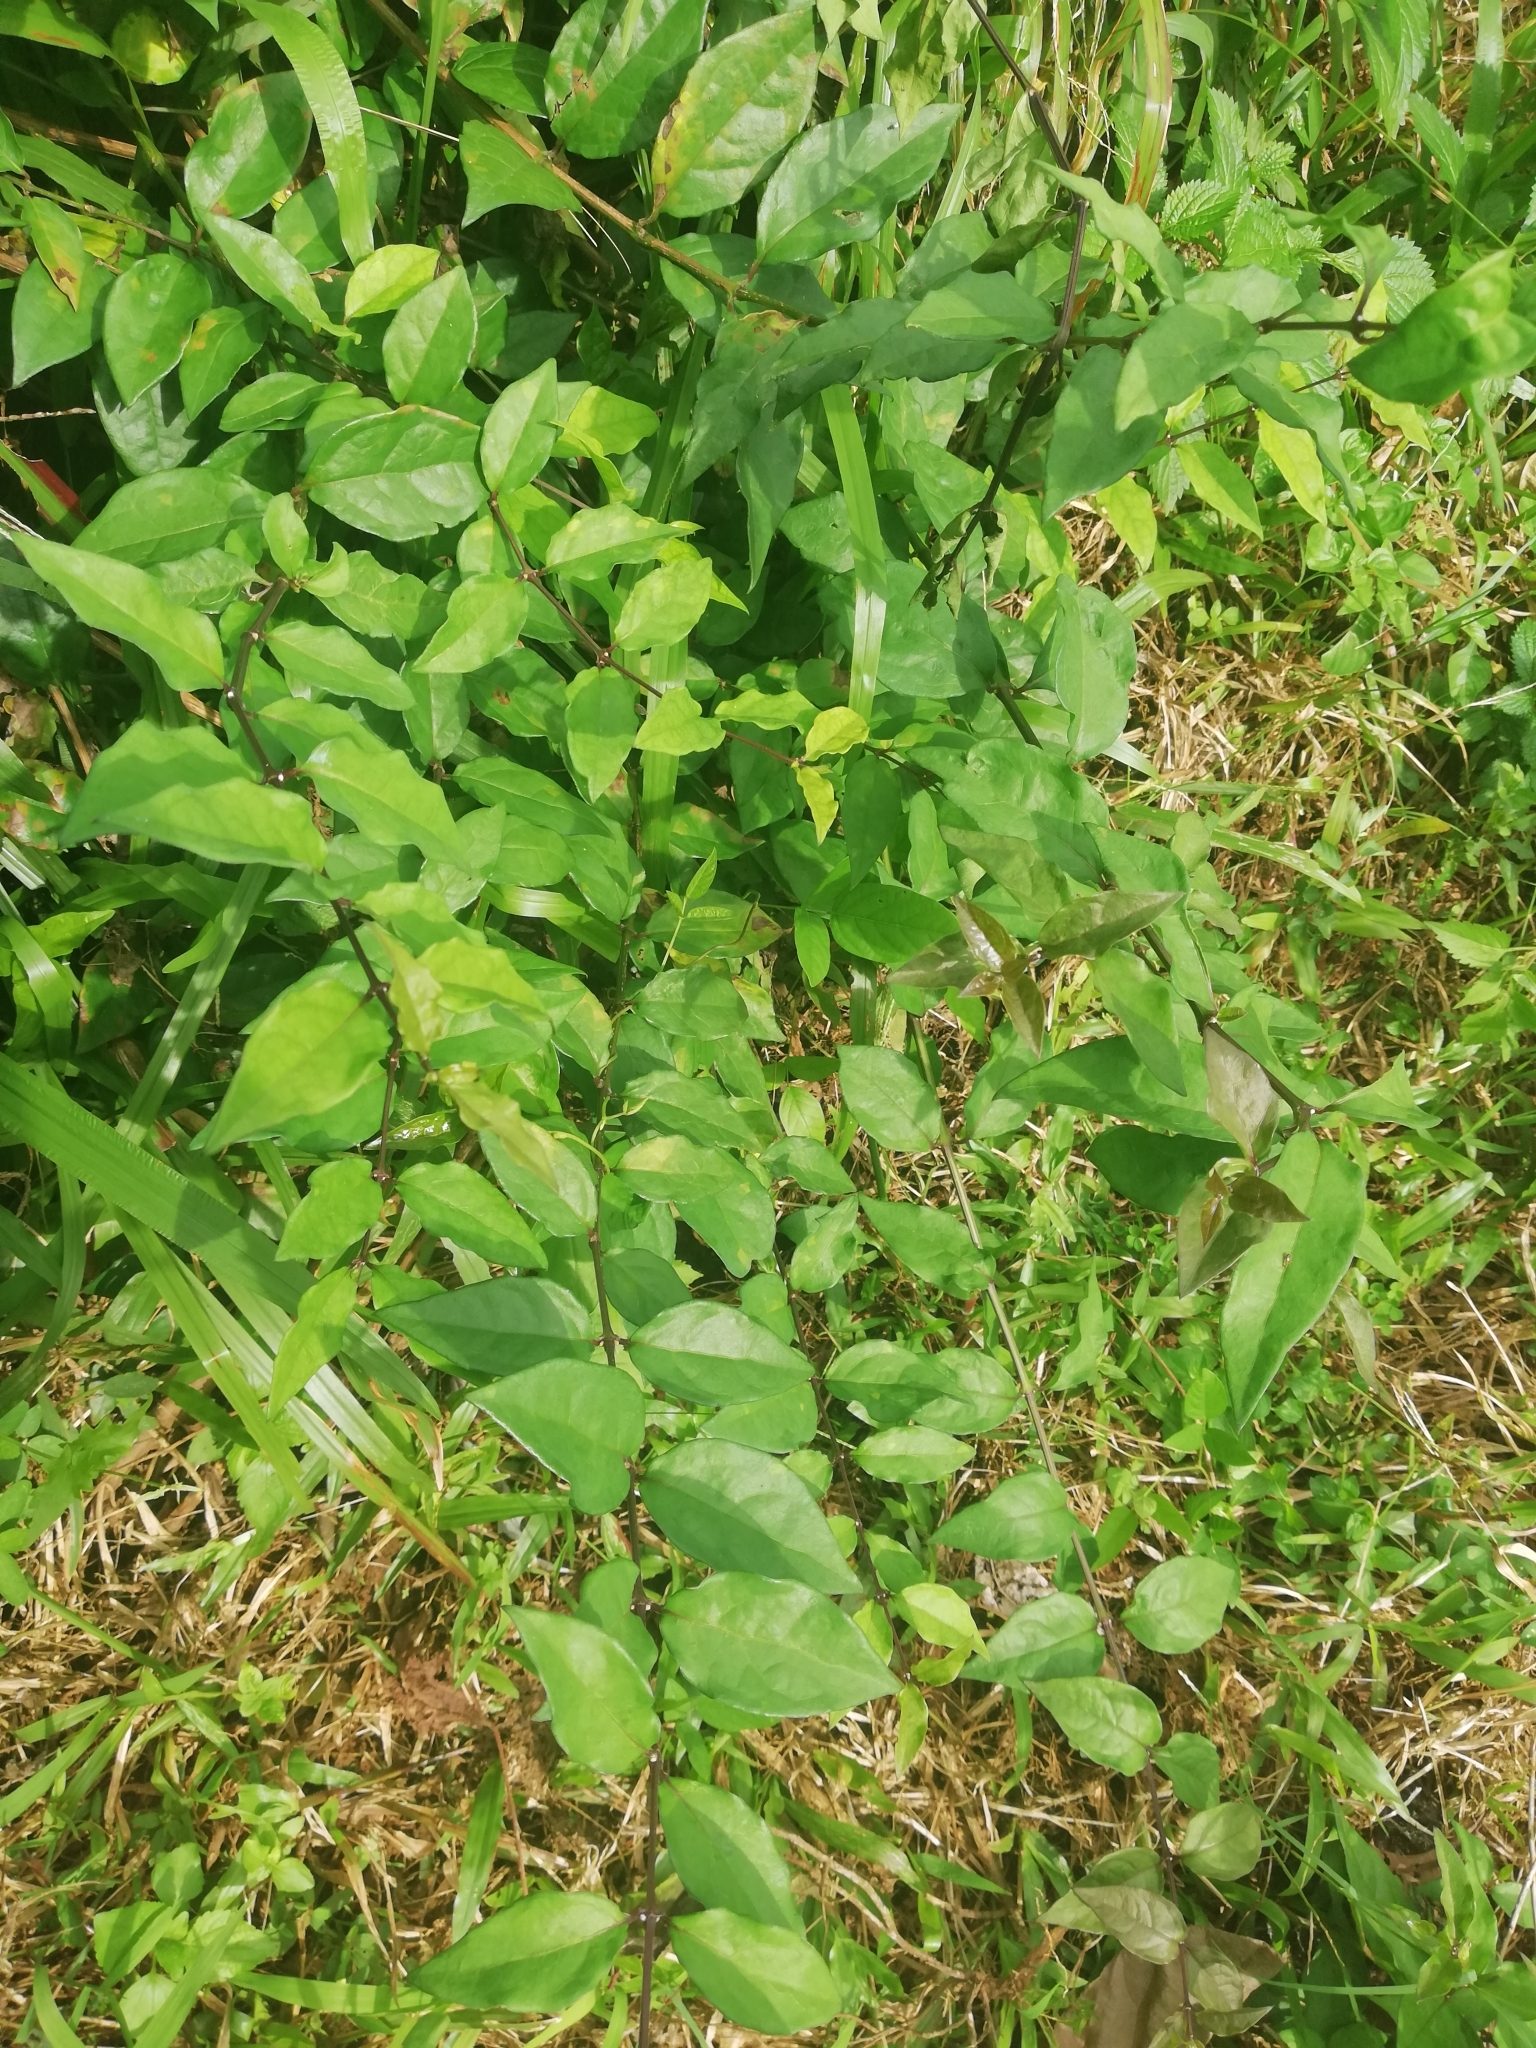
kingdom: Plantae
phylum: Tracheophyta
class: Magnoliopsida
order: Lamiales
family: Acanthaceae
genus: Thunbergia
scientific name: Thunbergia erecta
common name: Bush clockvine
